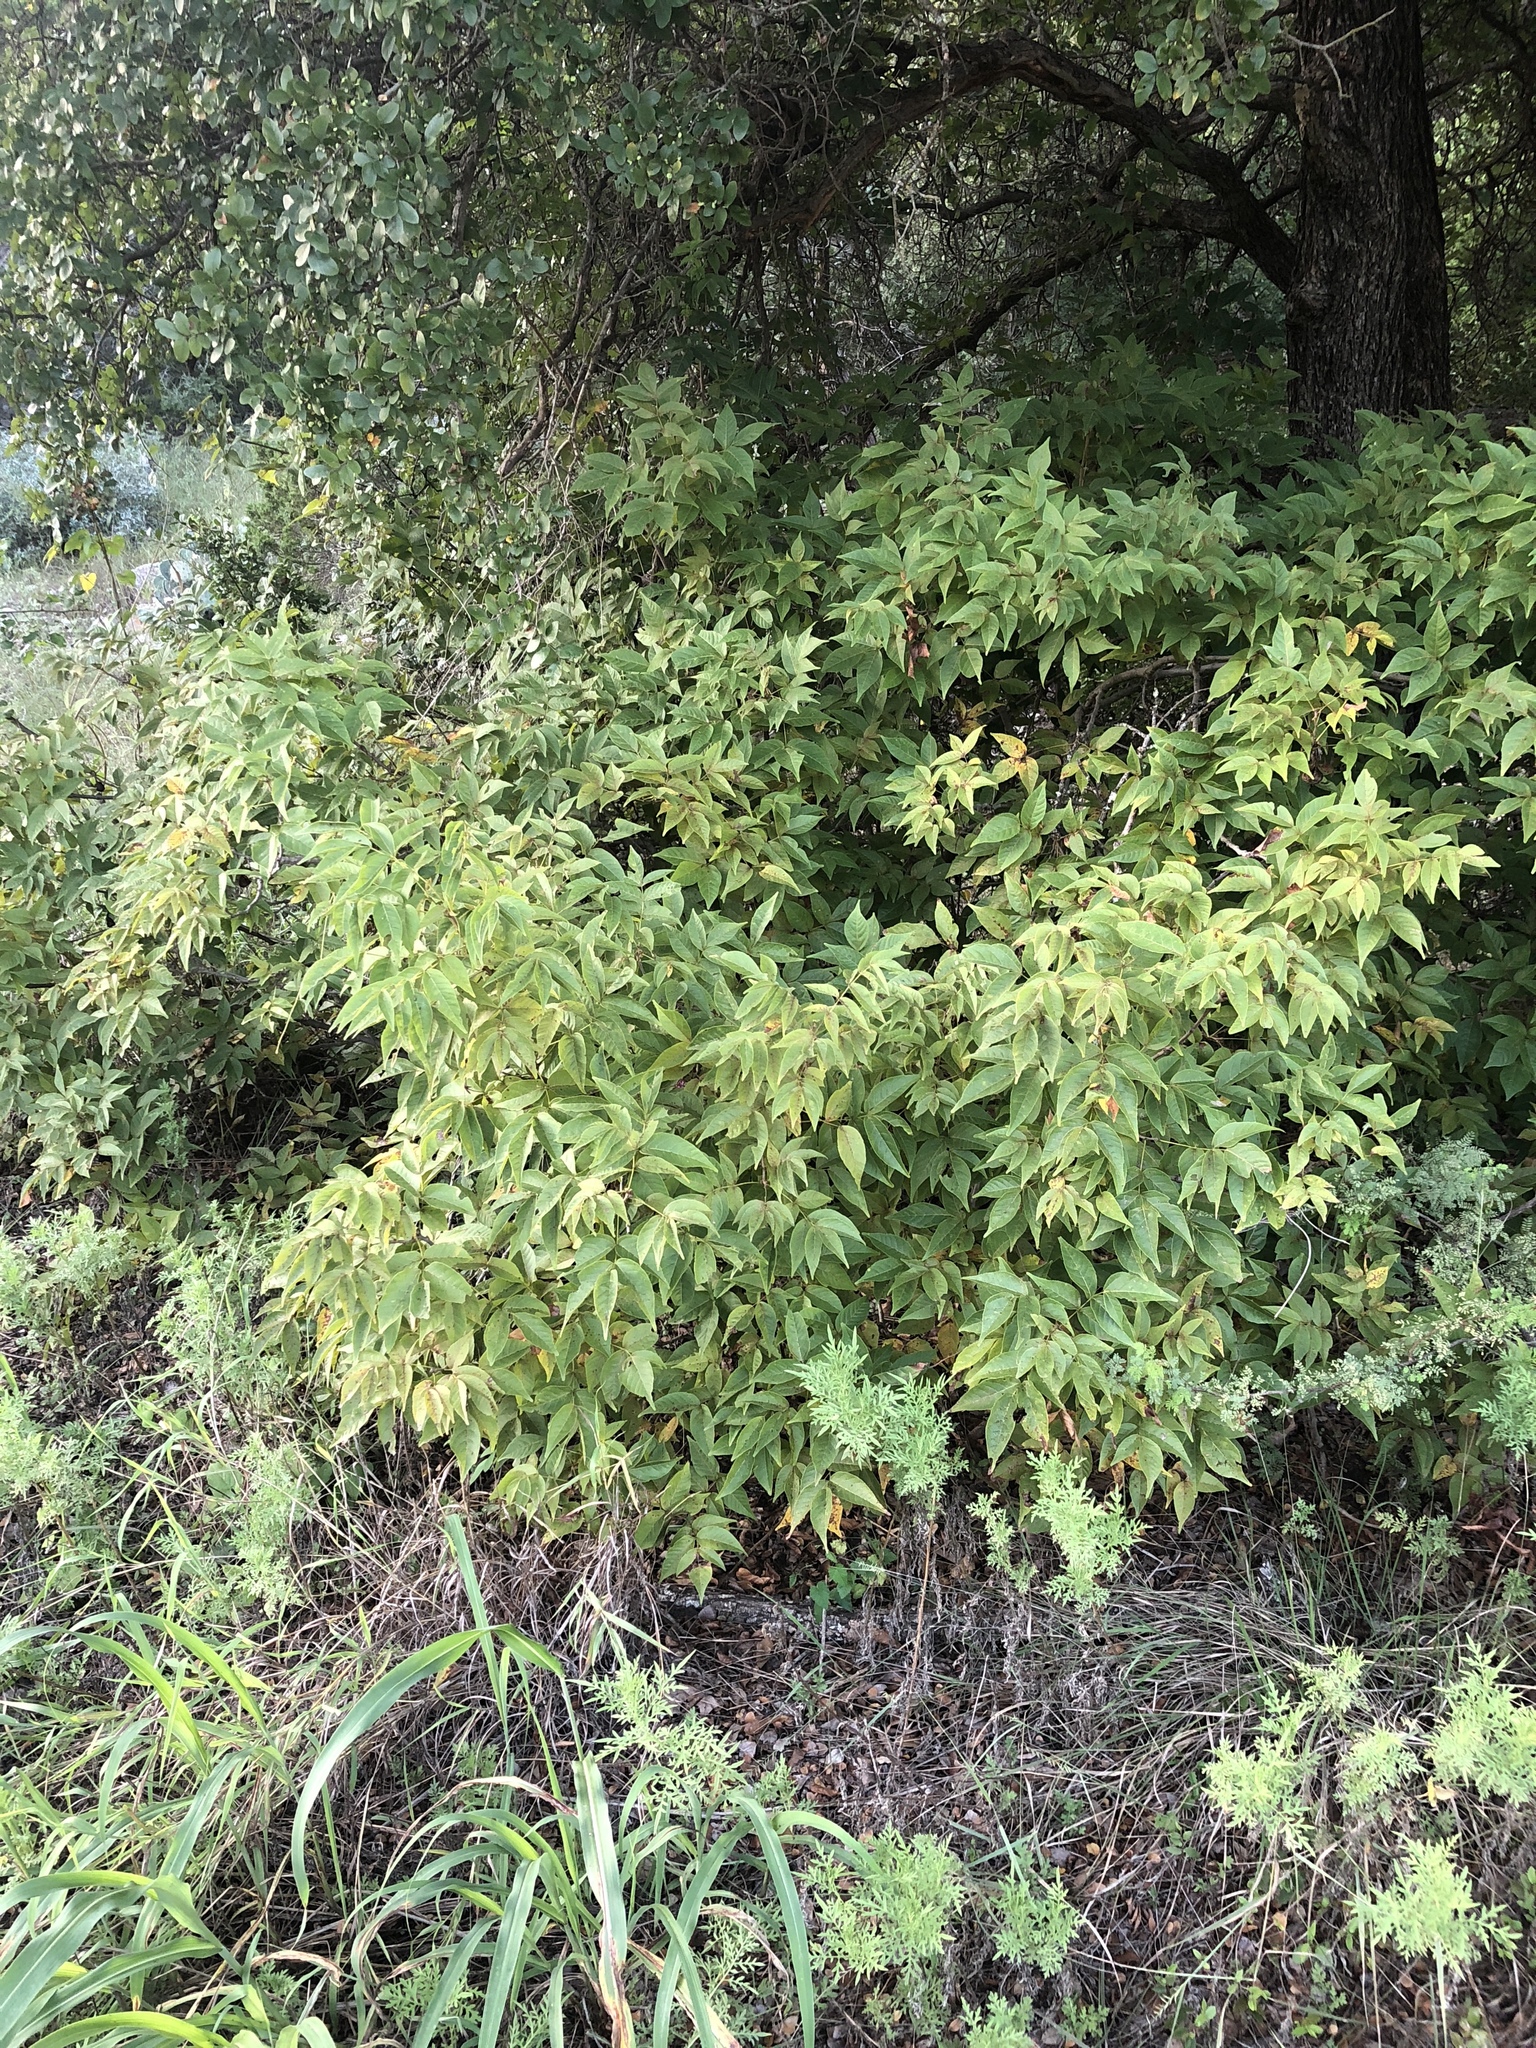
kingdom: Plantae
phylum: Tracheophyta
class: Magnoliopsida
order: Sapindales
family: Sapindaceae
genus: Ungnadia
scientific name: Ungnadia speciosa
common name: Texas-buckeye
